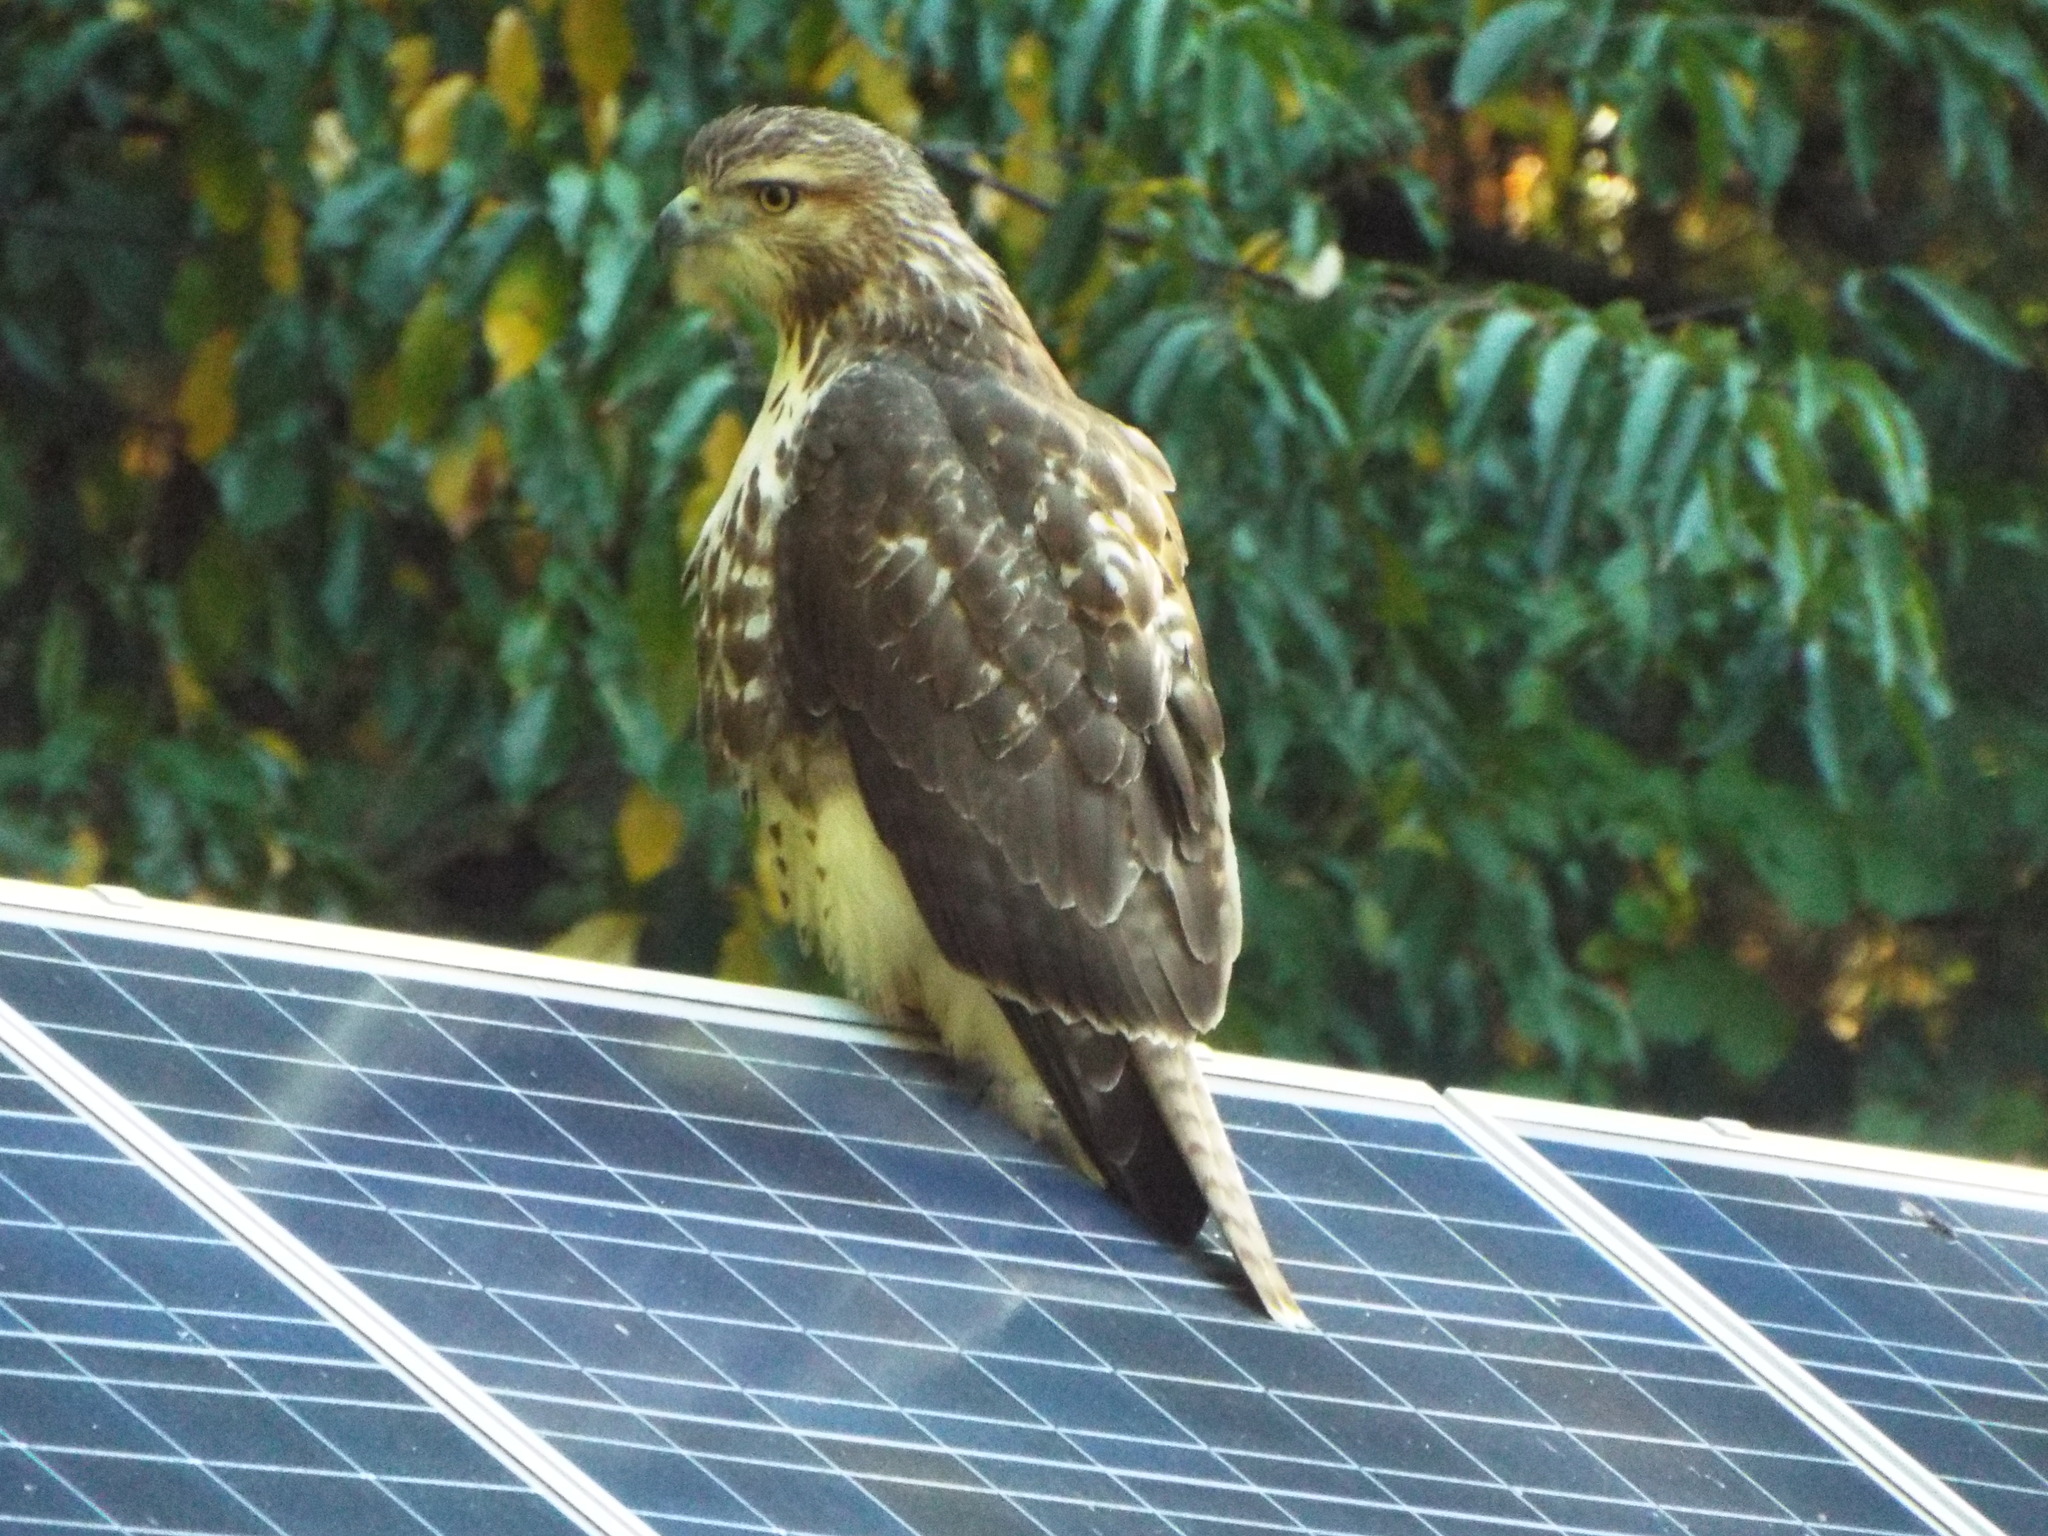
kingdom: Animalia
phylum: Chordata
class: Aves
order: Accipitriformes
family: Accipitridae
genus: Buteo
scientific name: Buteo jamaicensis
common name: Red-tailed hawk
